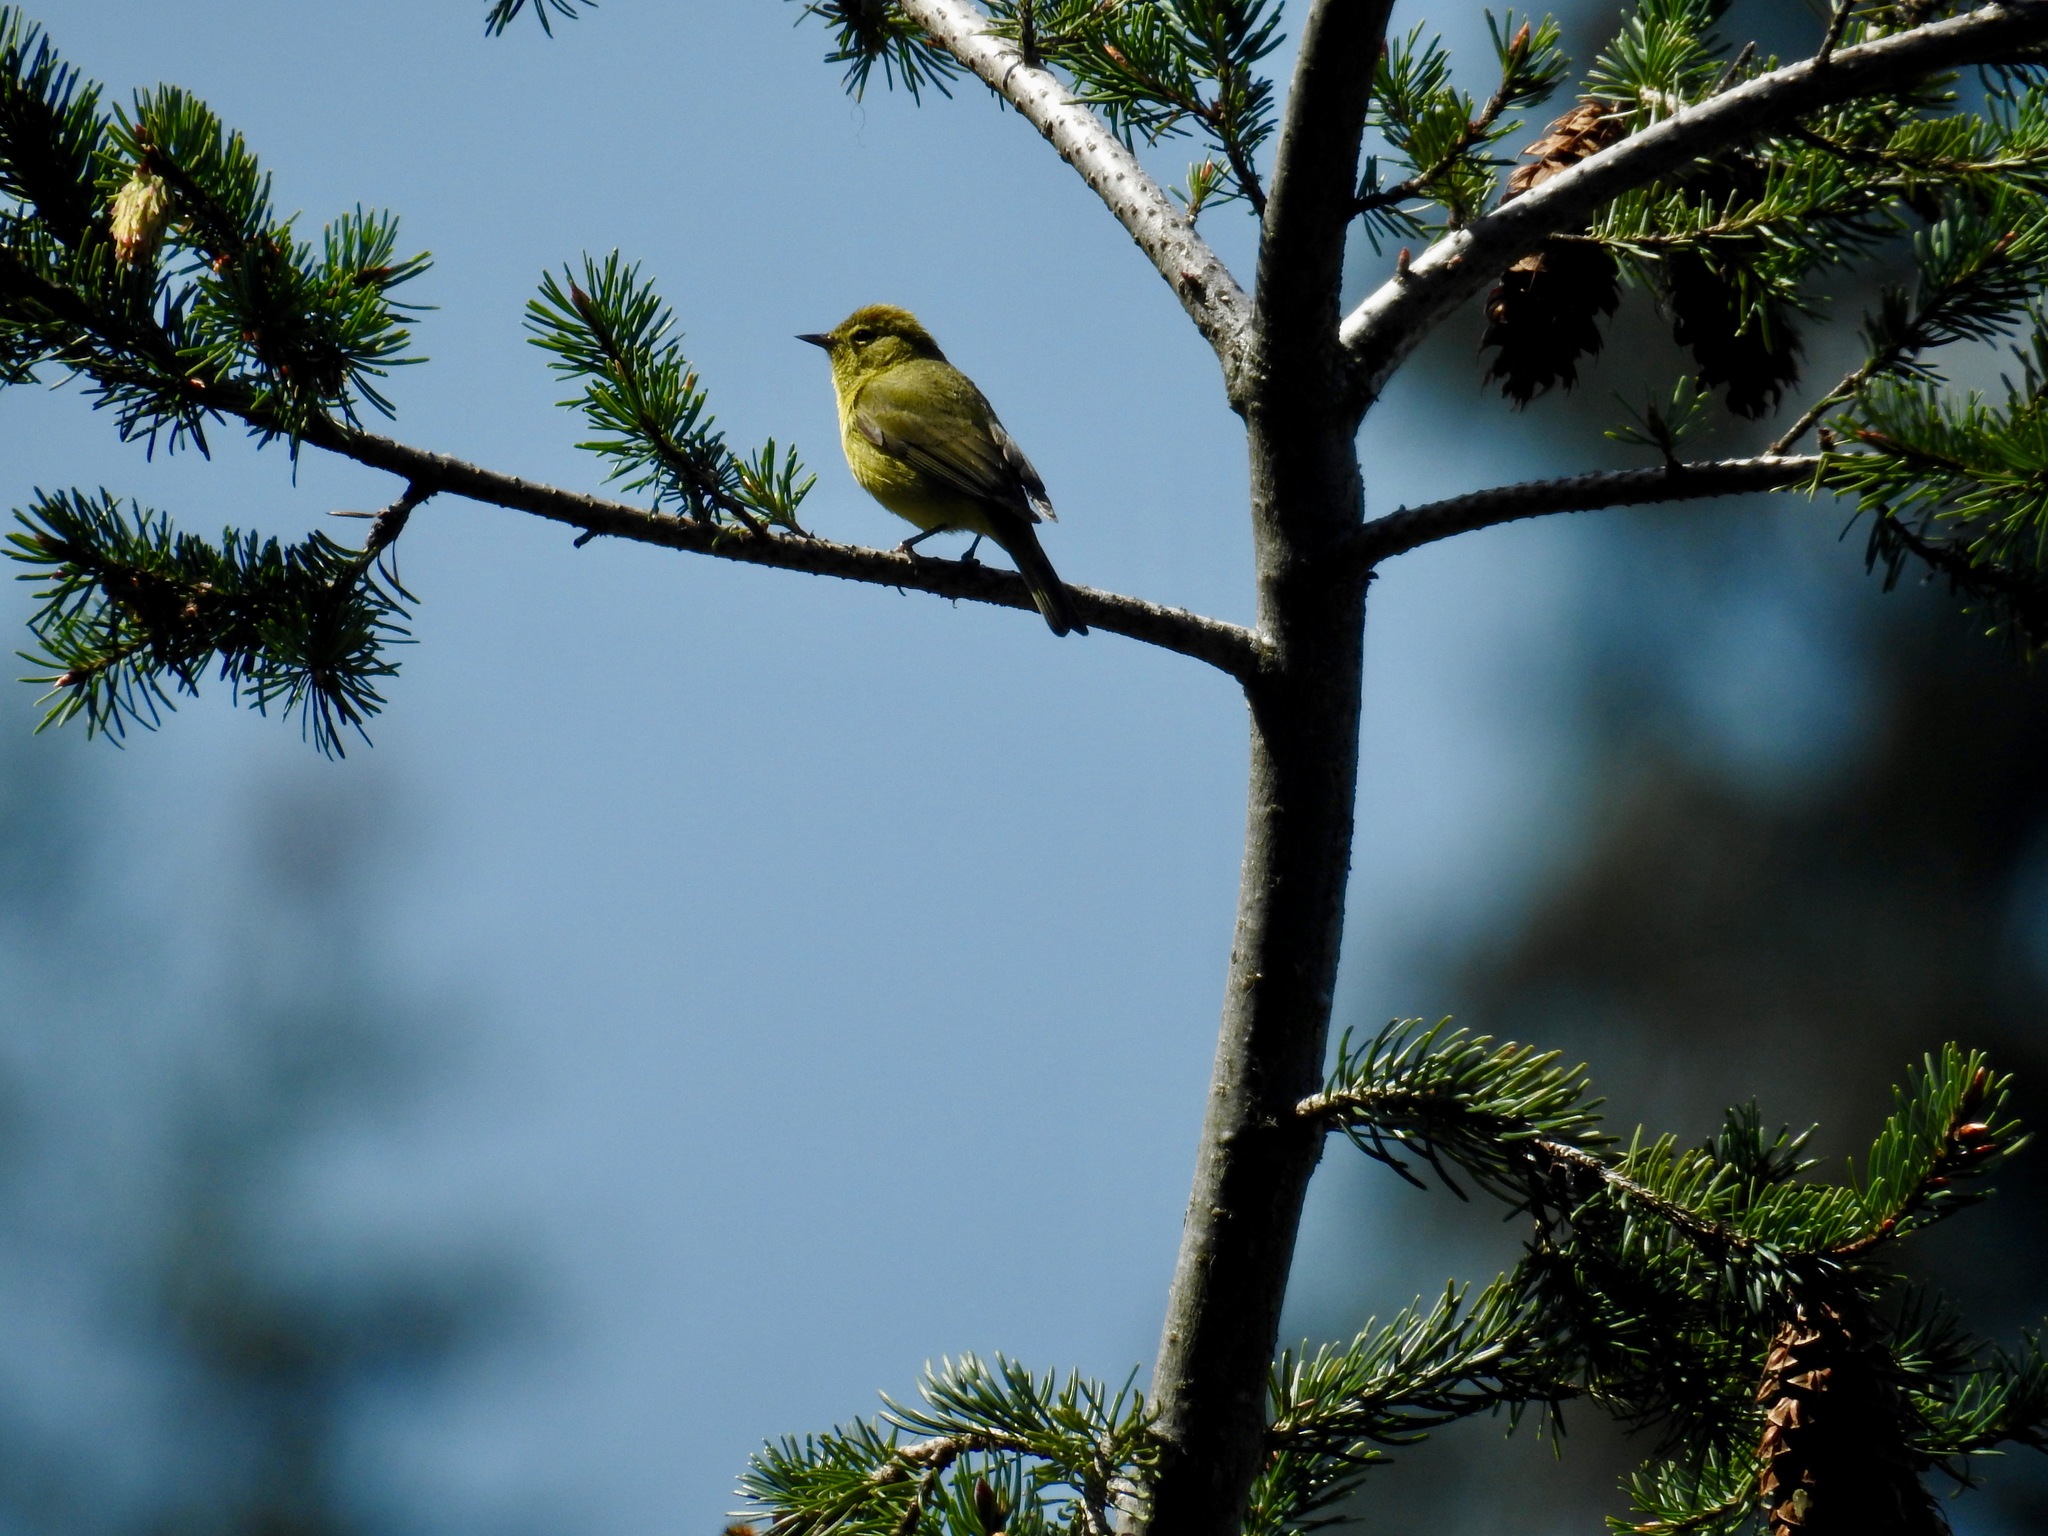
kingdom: Animalia
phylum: Chordata
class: Aves
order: Passeriformes
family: Parulidae
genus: Leiothlypis
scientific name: Leiothlypis celata
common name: Orange-crowned warbler
